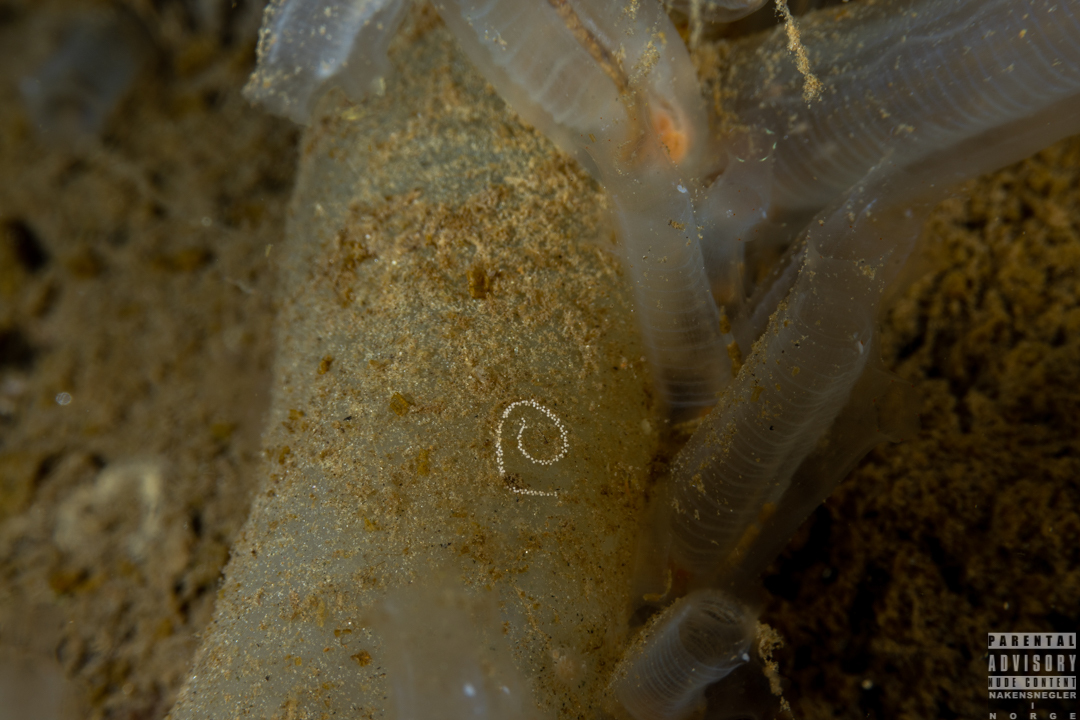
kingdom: Animalia
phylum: Mollusca
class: Gastropoda
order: Nudibranchia
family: Cuthonidae
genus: Bohuslania
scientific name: Bohuslania matsmichaeli
